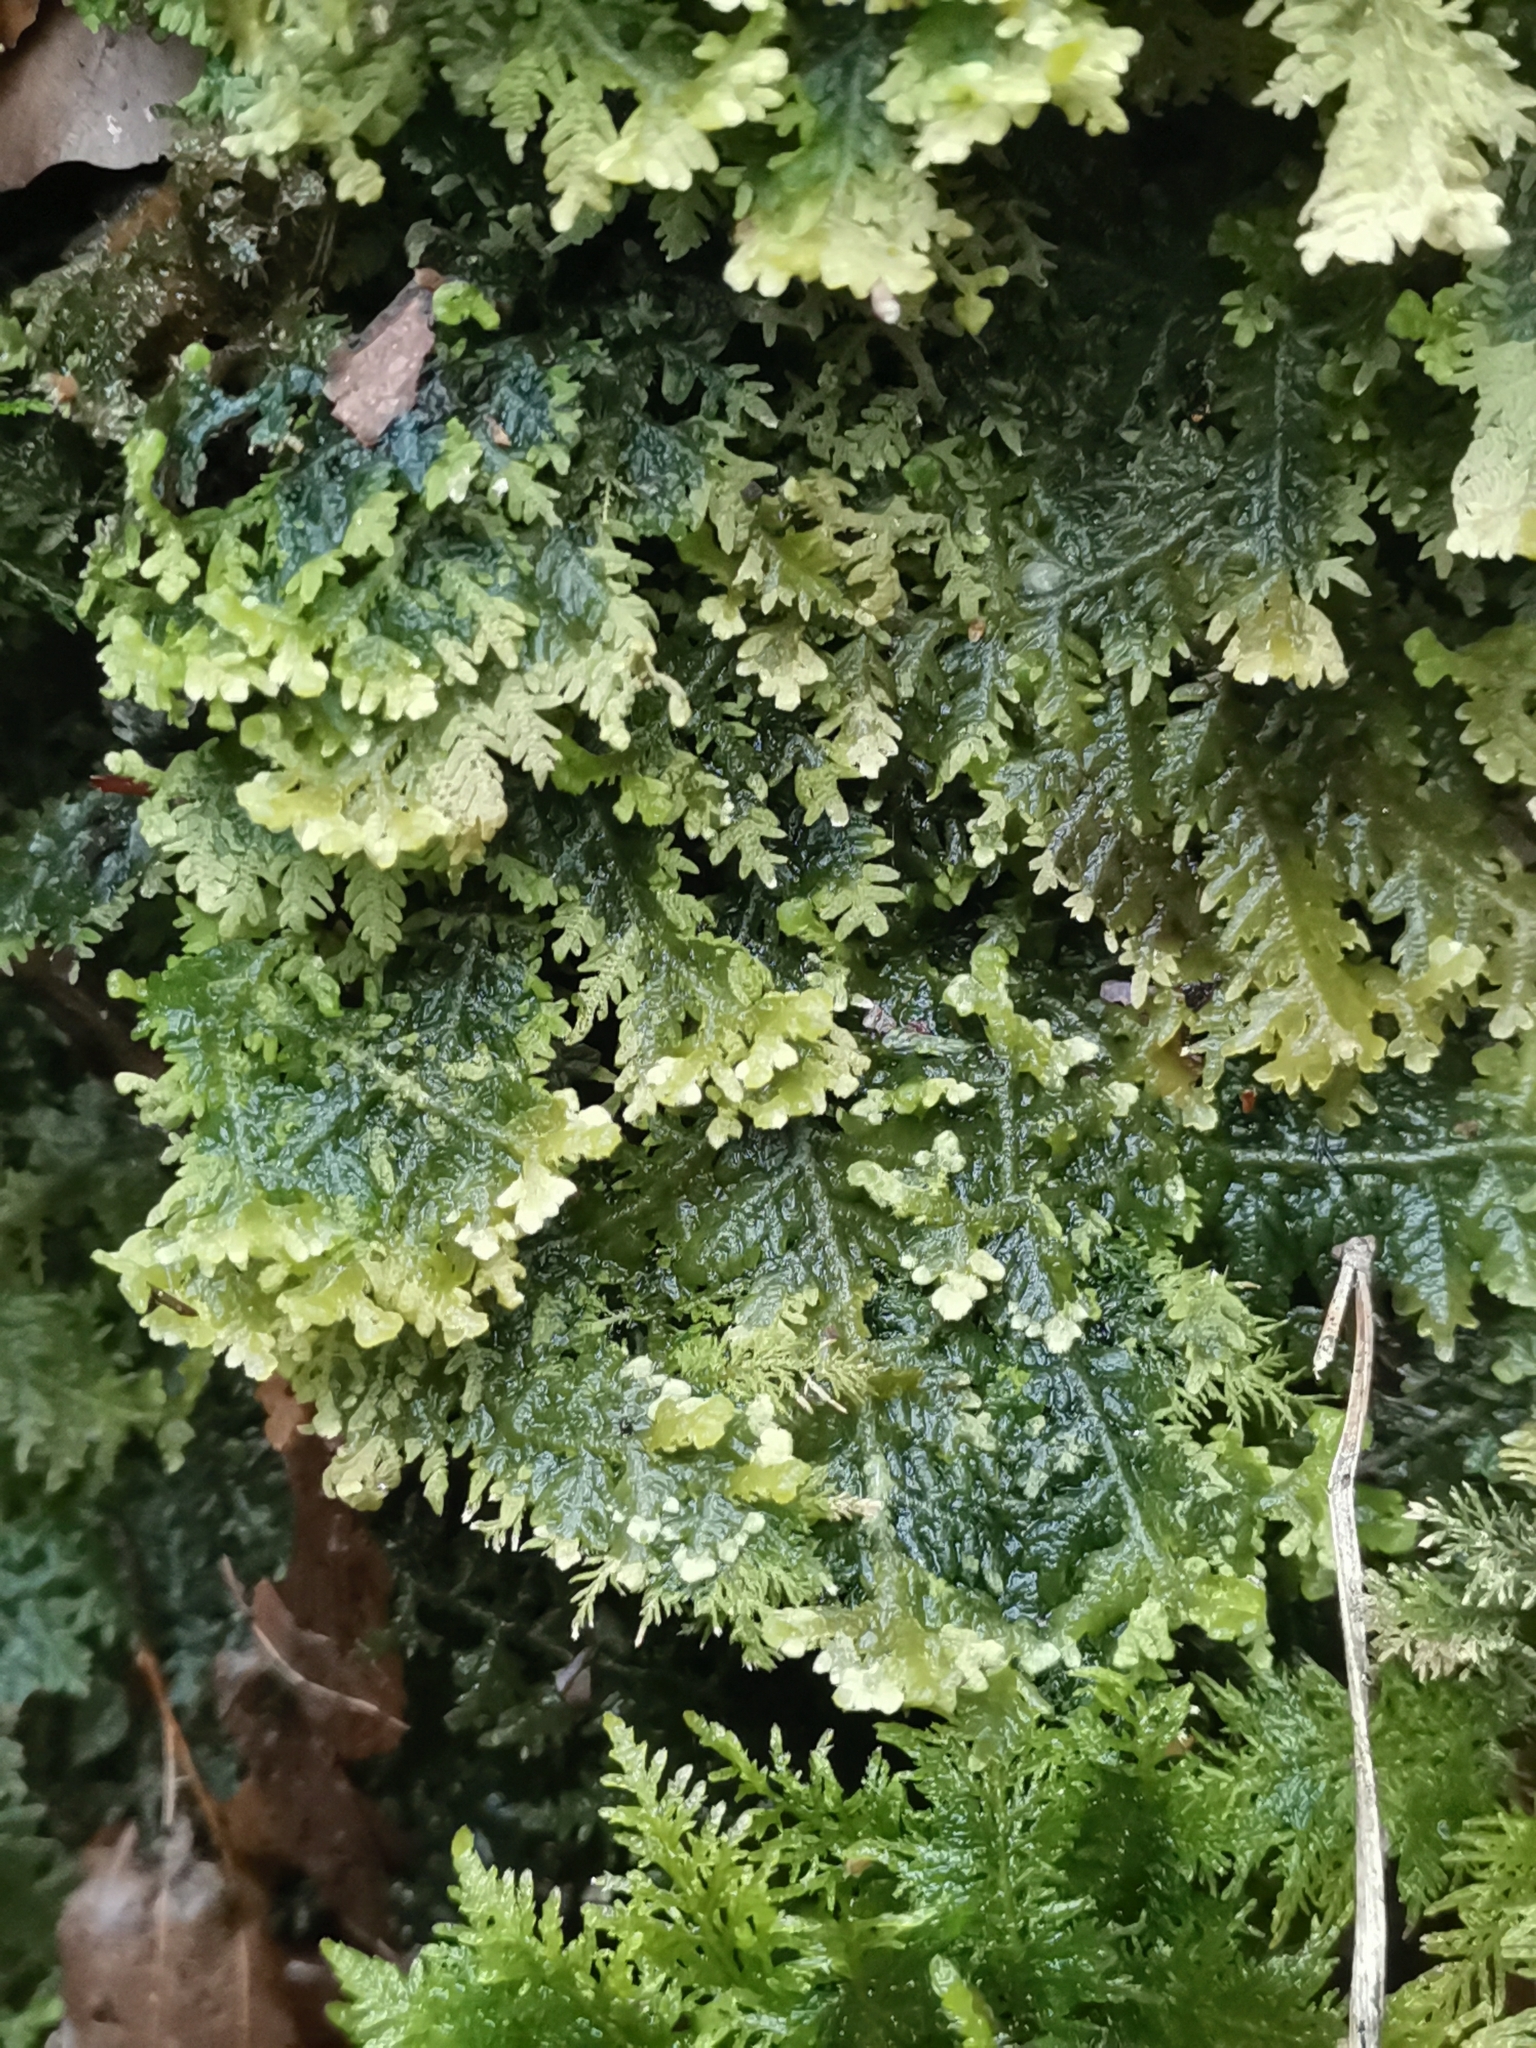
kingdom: Plantae
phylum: Marchantiophyta
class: Jungermanniopsida
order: Jungermanniales
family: Trichocoleaceae
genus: Trichocolea
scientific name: Trichocolea tomentella
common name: Woolly liverwort
